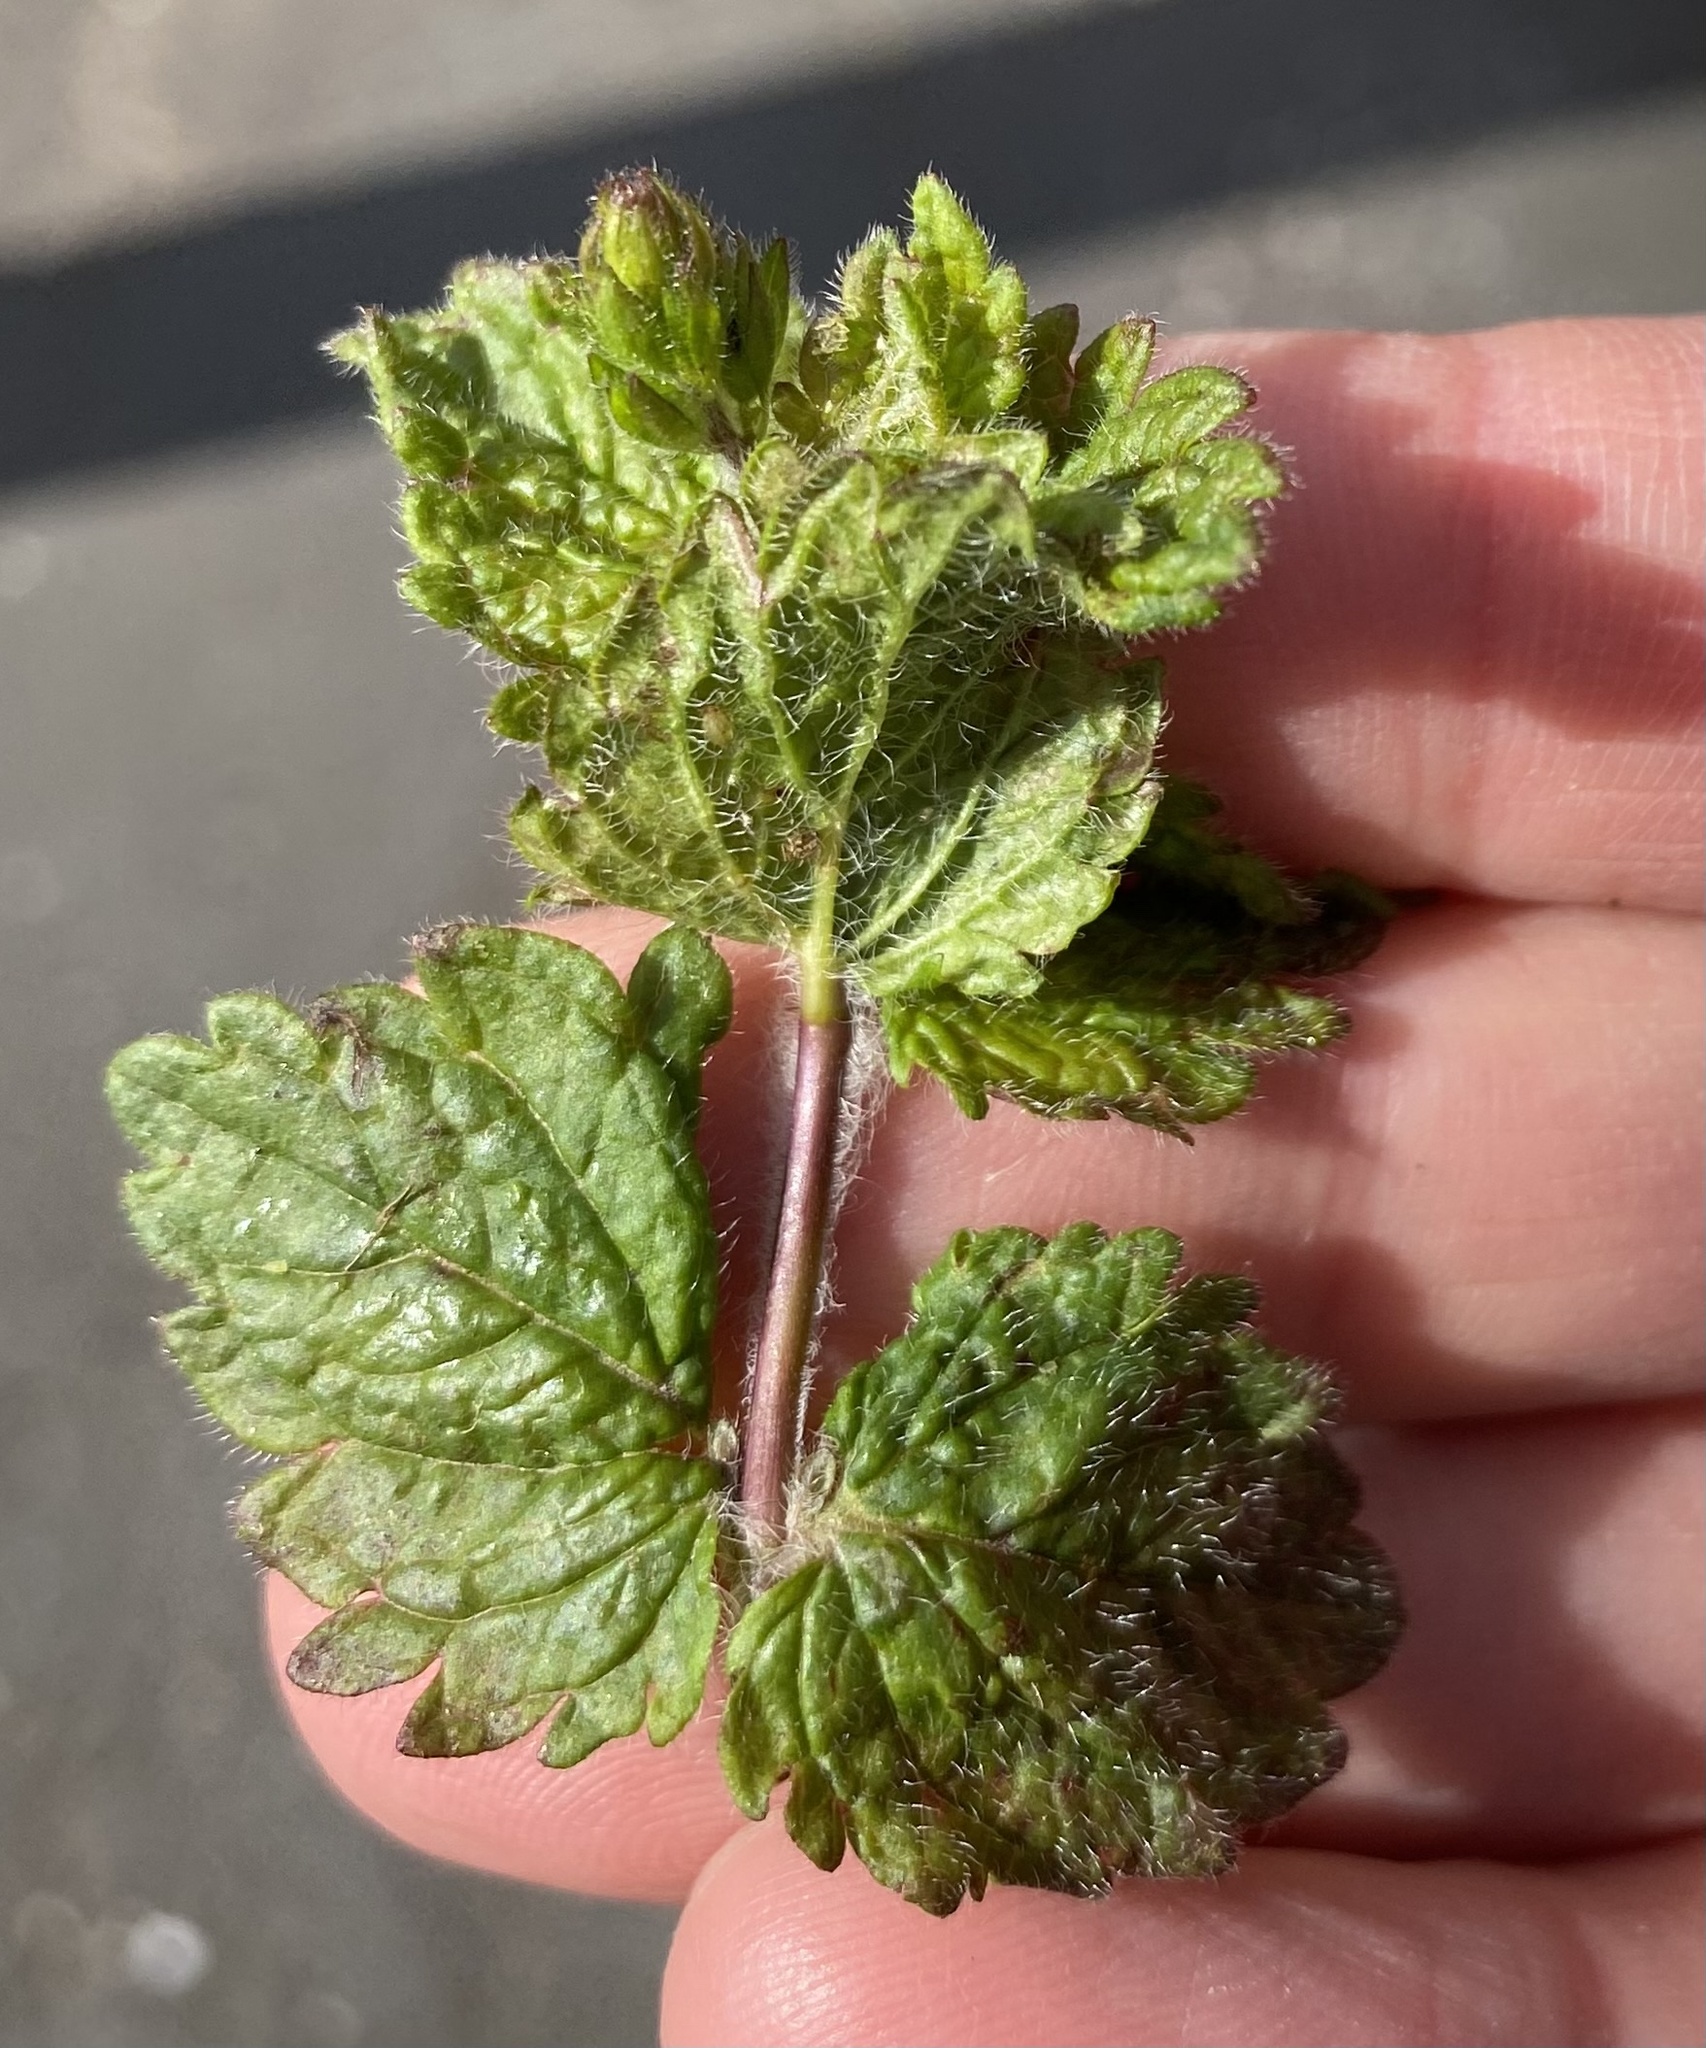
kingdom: Plantae
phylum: Tracheophyta
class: Magnoliopsida
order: Lamiales
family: Plantaginaceae
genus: Veronica
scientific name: Veronica chamaedrys
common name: Germander speedwell
